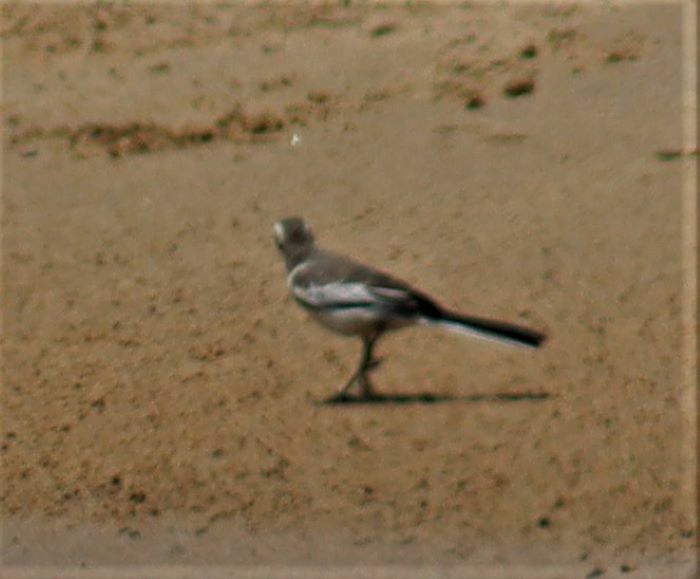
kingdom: Animalia
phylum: Chordata
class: Aves
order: Passeriformes
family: Motacillidae
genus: Motacilla
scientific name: Motacilla aguimp
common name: African pied wagtail
